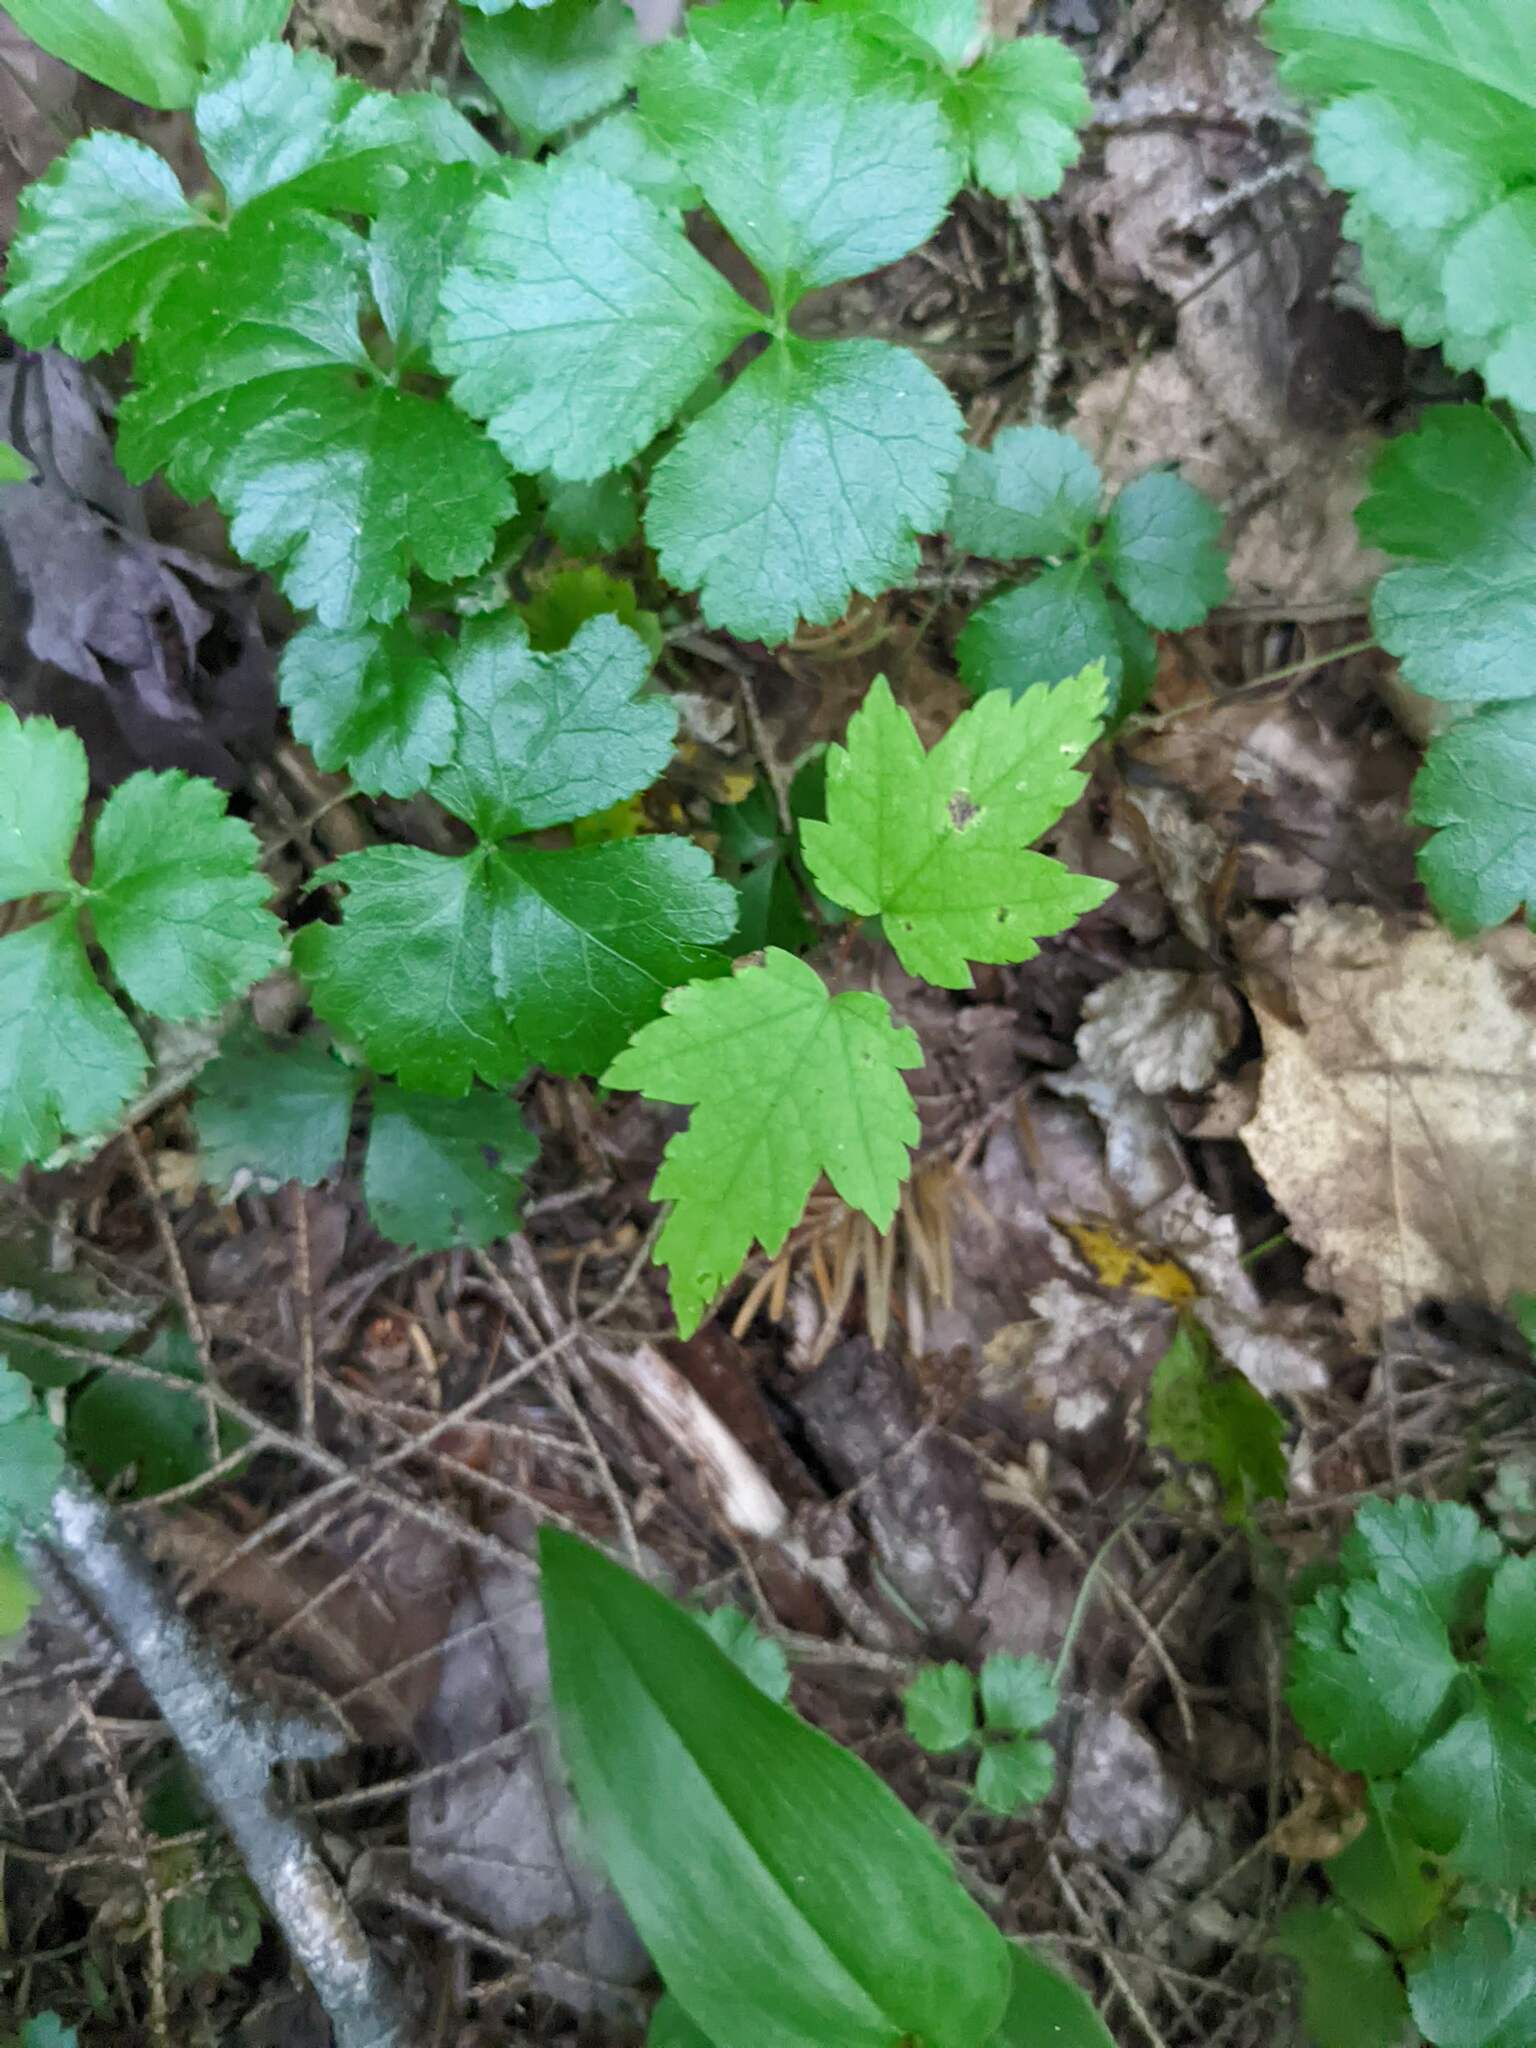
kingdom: Plantae
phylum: Tracheophyta
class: Magnoliopsida
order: Sapindales
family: Sapindaceae
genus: Acer
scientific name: Acer rubrum
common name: Red maple
